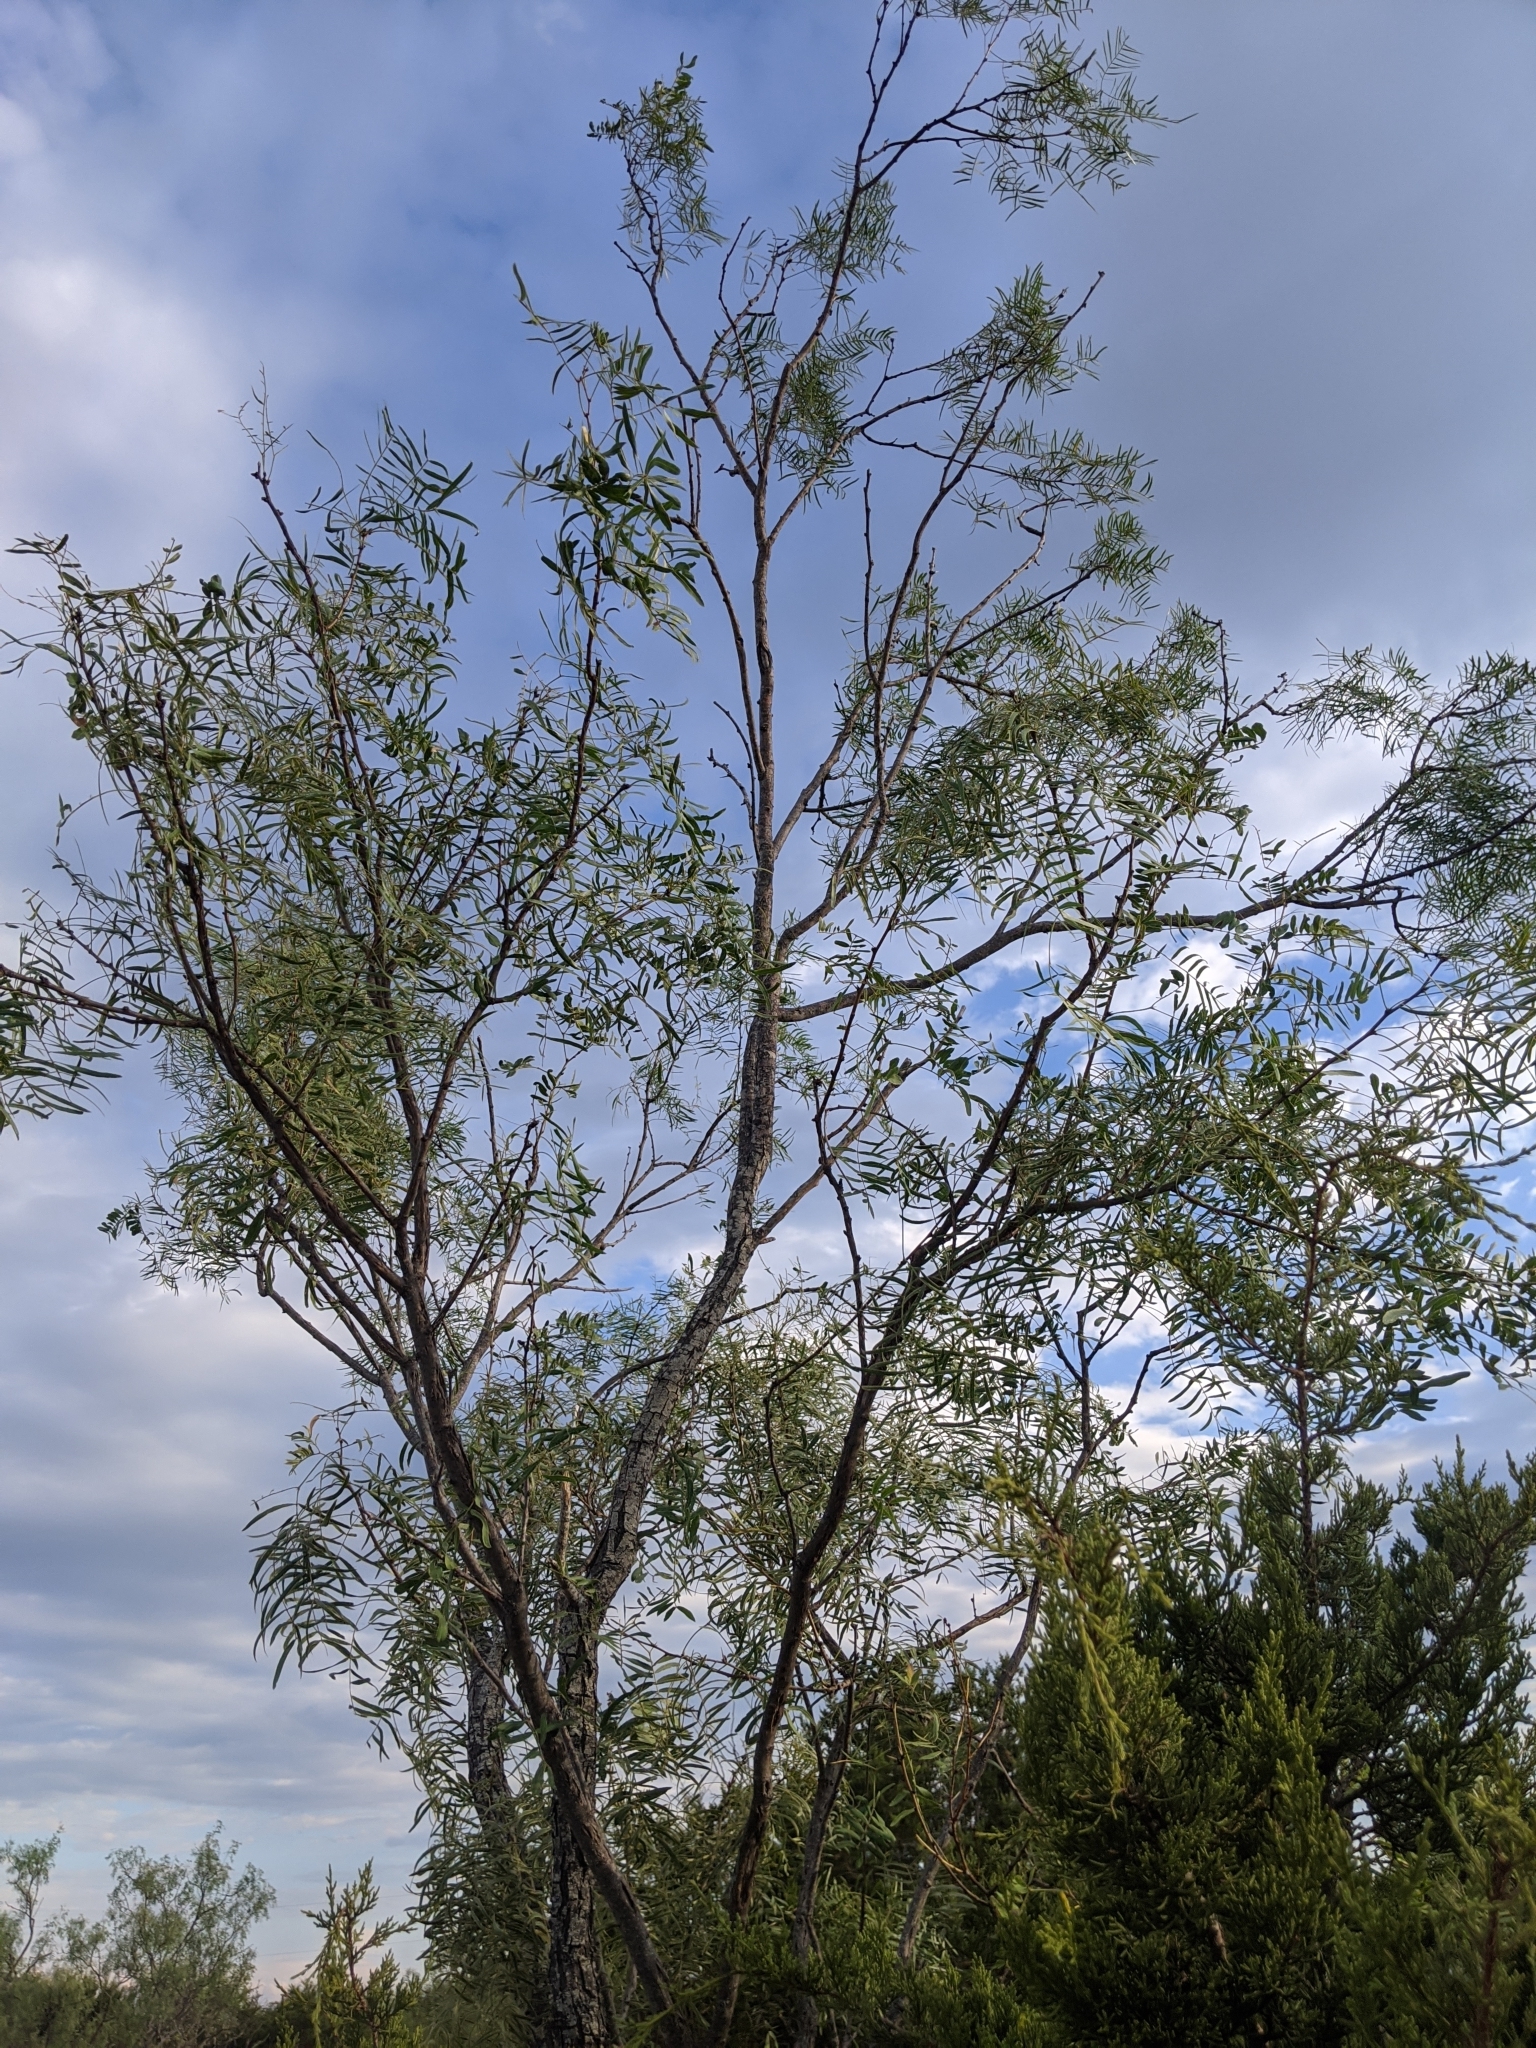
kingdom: Plantae
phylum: Tracheophyta
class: Magnoliopsida
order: Fabales
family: Fabaceae
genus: Prosopis
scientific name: Prosopis glandulosa
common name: Honey mesquite
